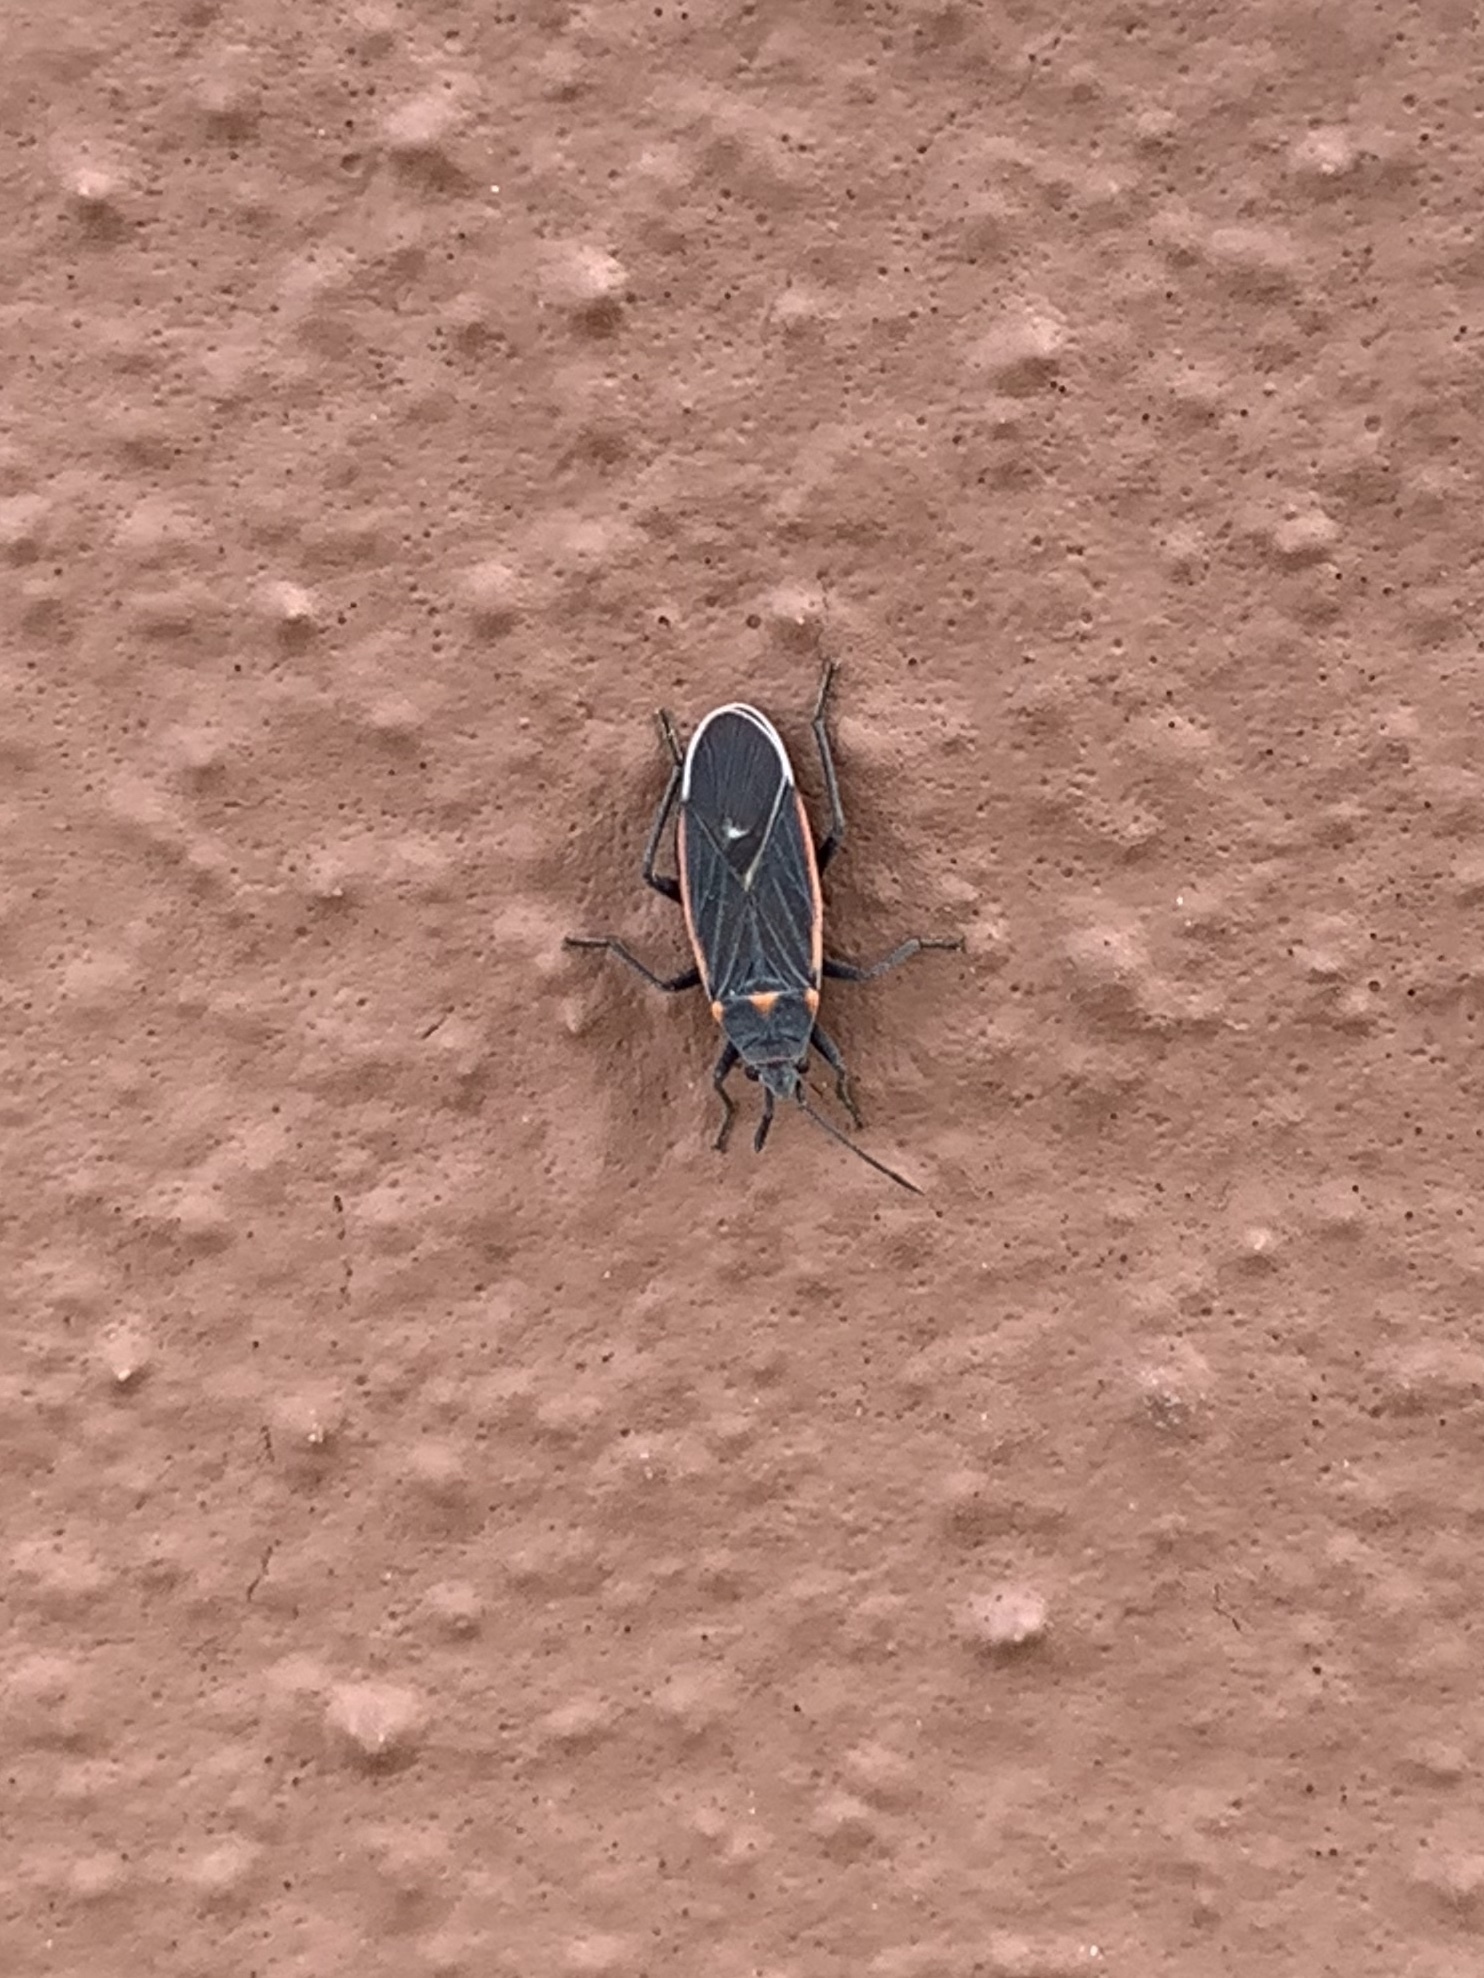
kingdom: Animalia
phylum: Arthropoda
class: Insecta
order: Hemiptera
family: Lygaeidae
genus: Melacoryphus
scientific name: Melacoryphus lateralis
